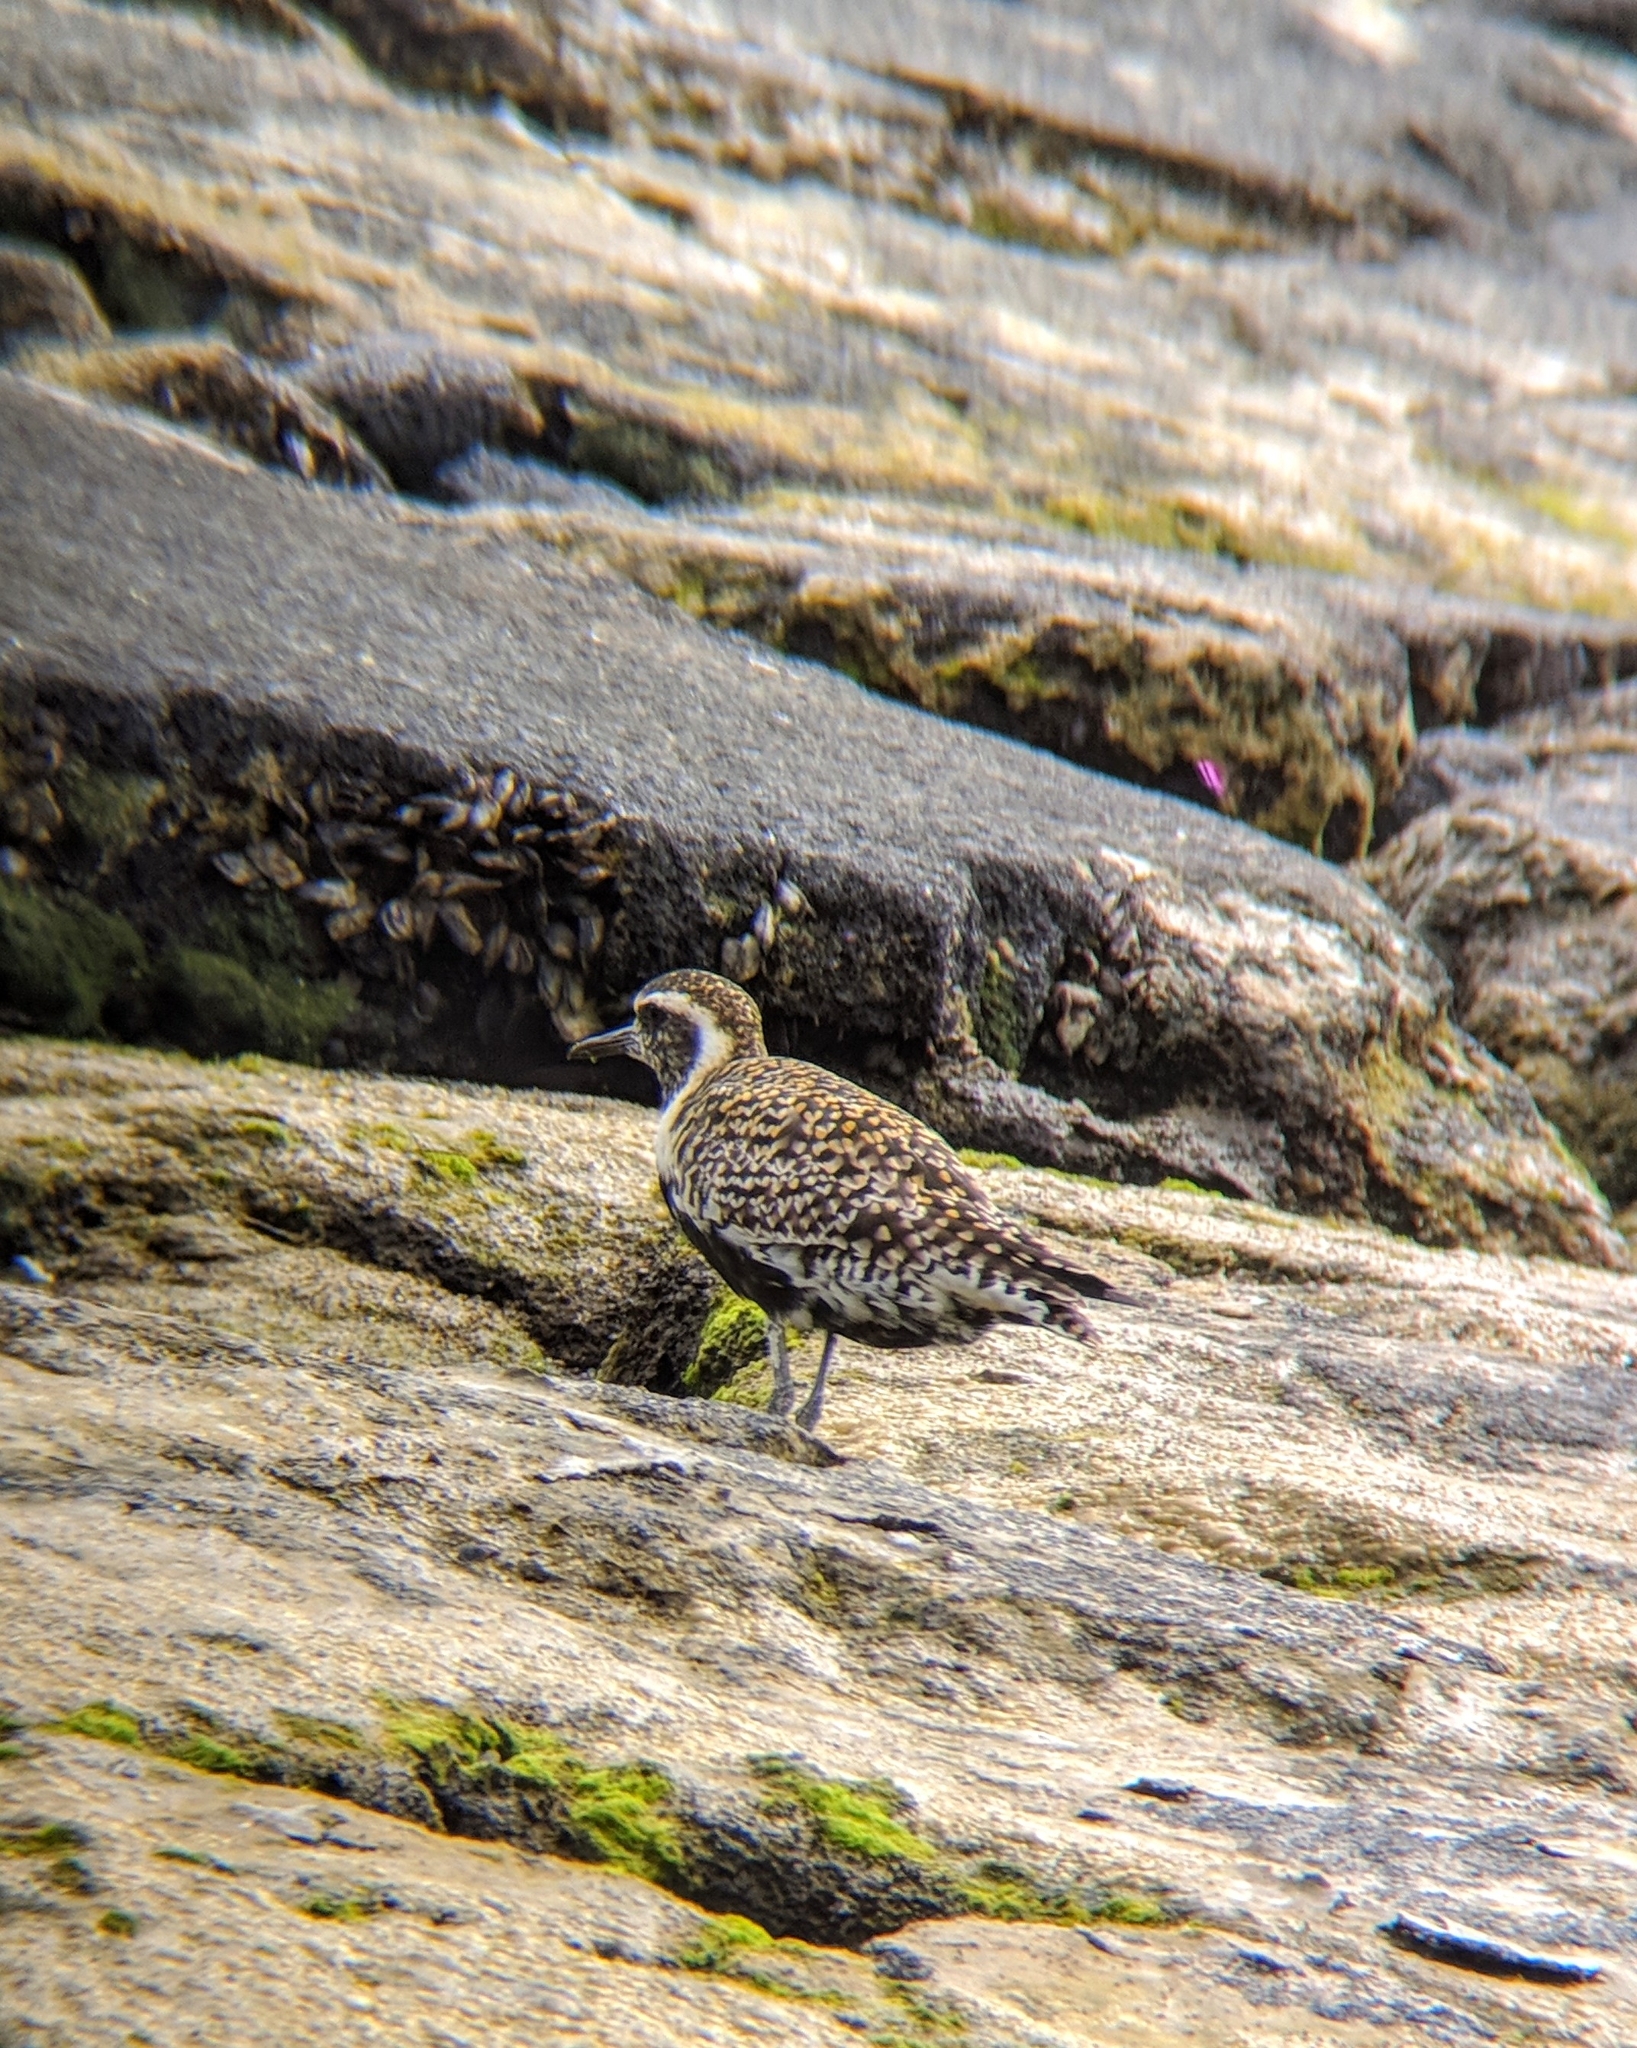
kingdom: Animalia
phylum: Chordata
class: Aves
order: Charadriiformes
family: Charadriidae
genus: Pluvialis
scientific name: Pluvialis fulva
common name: Pacific golden plover
